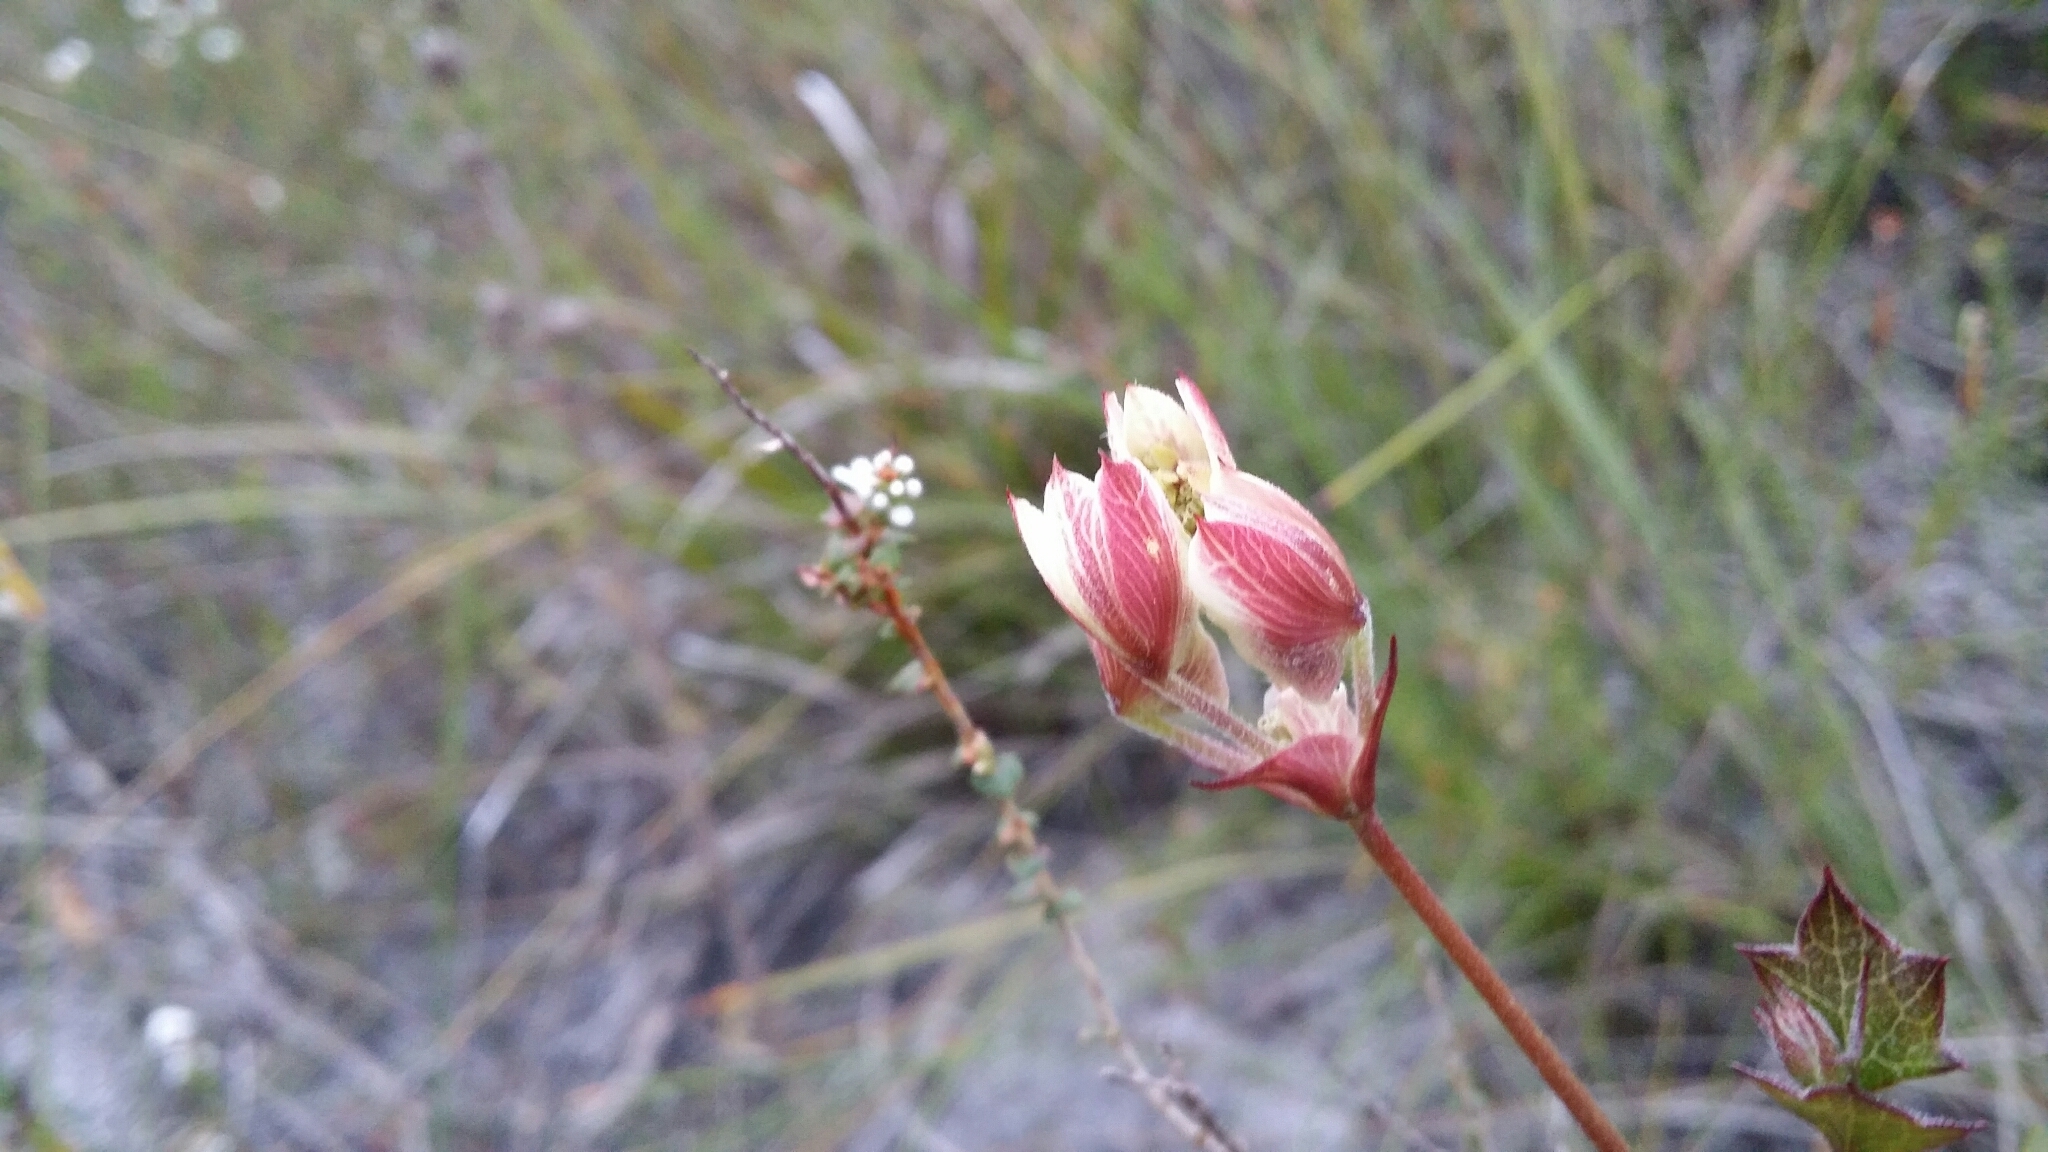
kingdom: Plantae
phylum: Tracheophyta
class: Magnoliopsida
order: Apiales
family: Apiaceae
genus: Xanthosia
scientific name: Xanthosia rotundifolia
